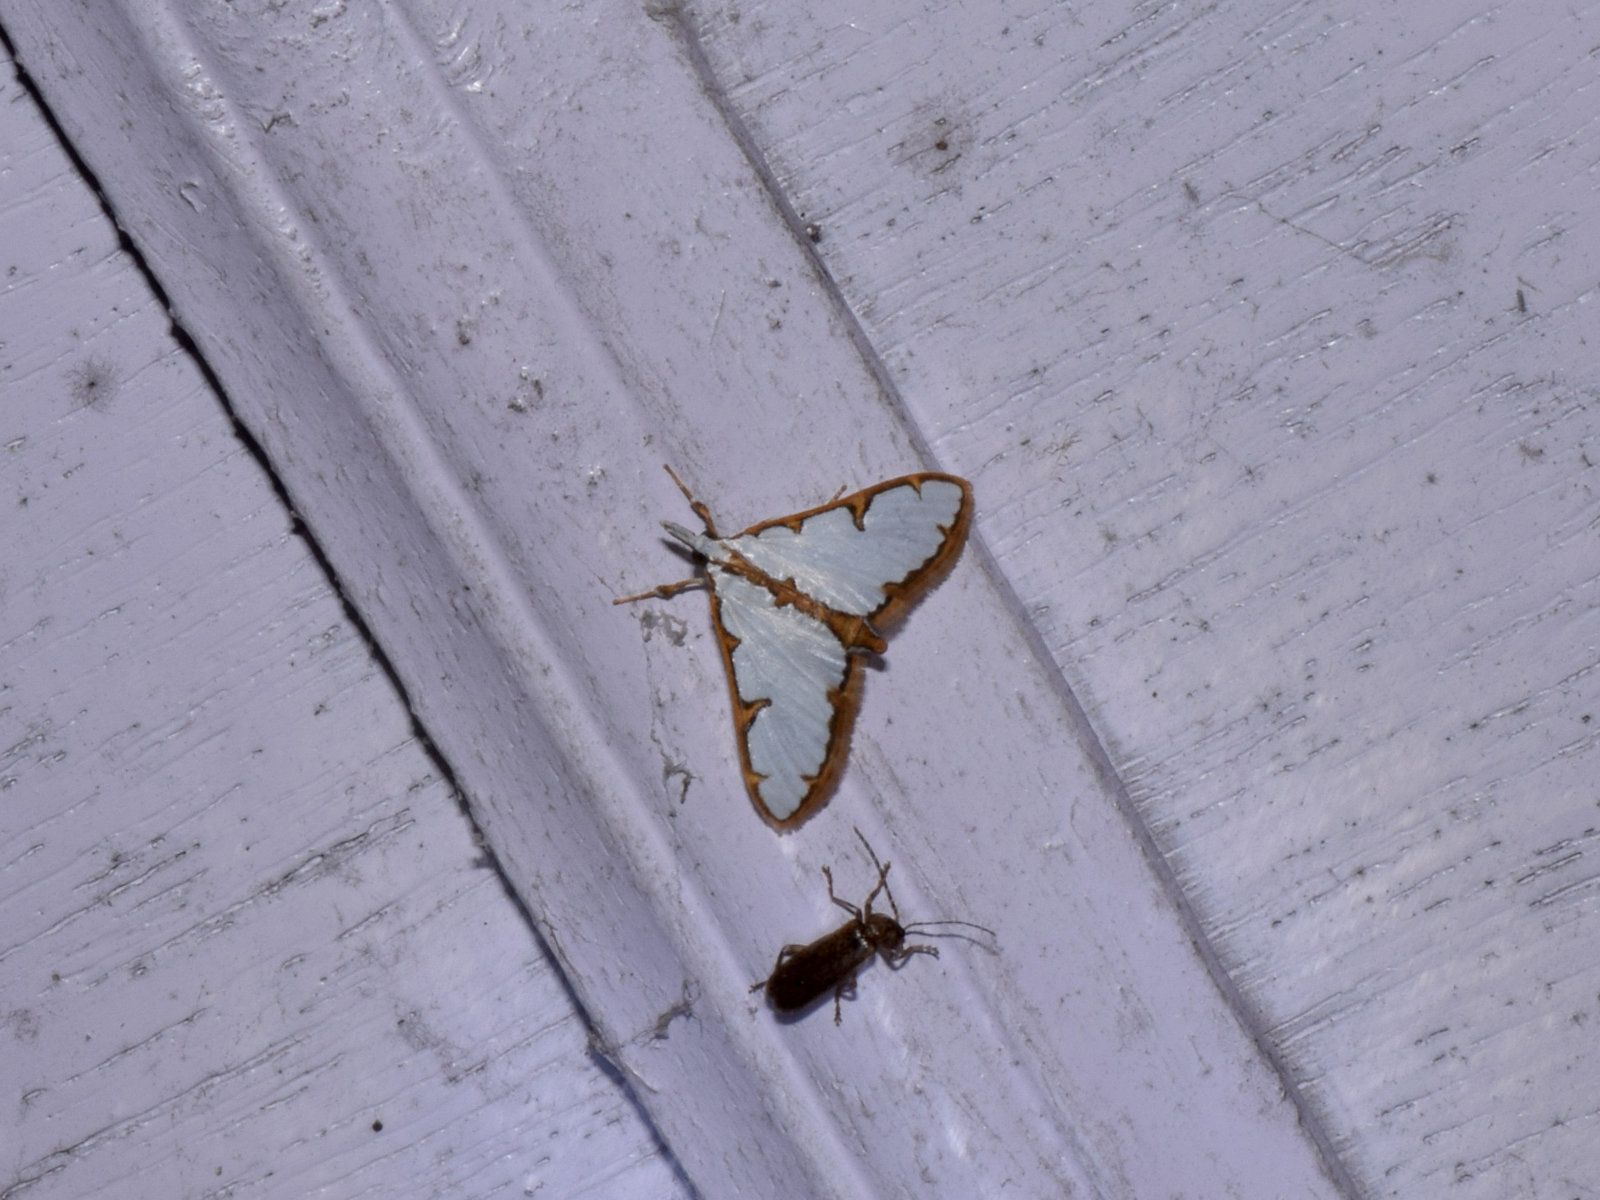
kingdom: Animalia
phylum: Arthropoda
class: Insecta
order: Lepidoptera
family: Crambidae
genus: Cirrhochrista
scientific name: Cirrhochrista brizoalis
